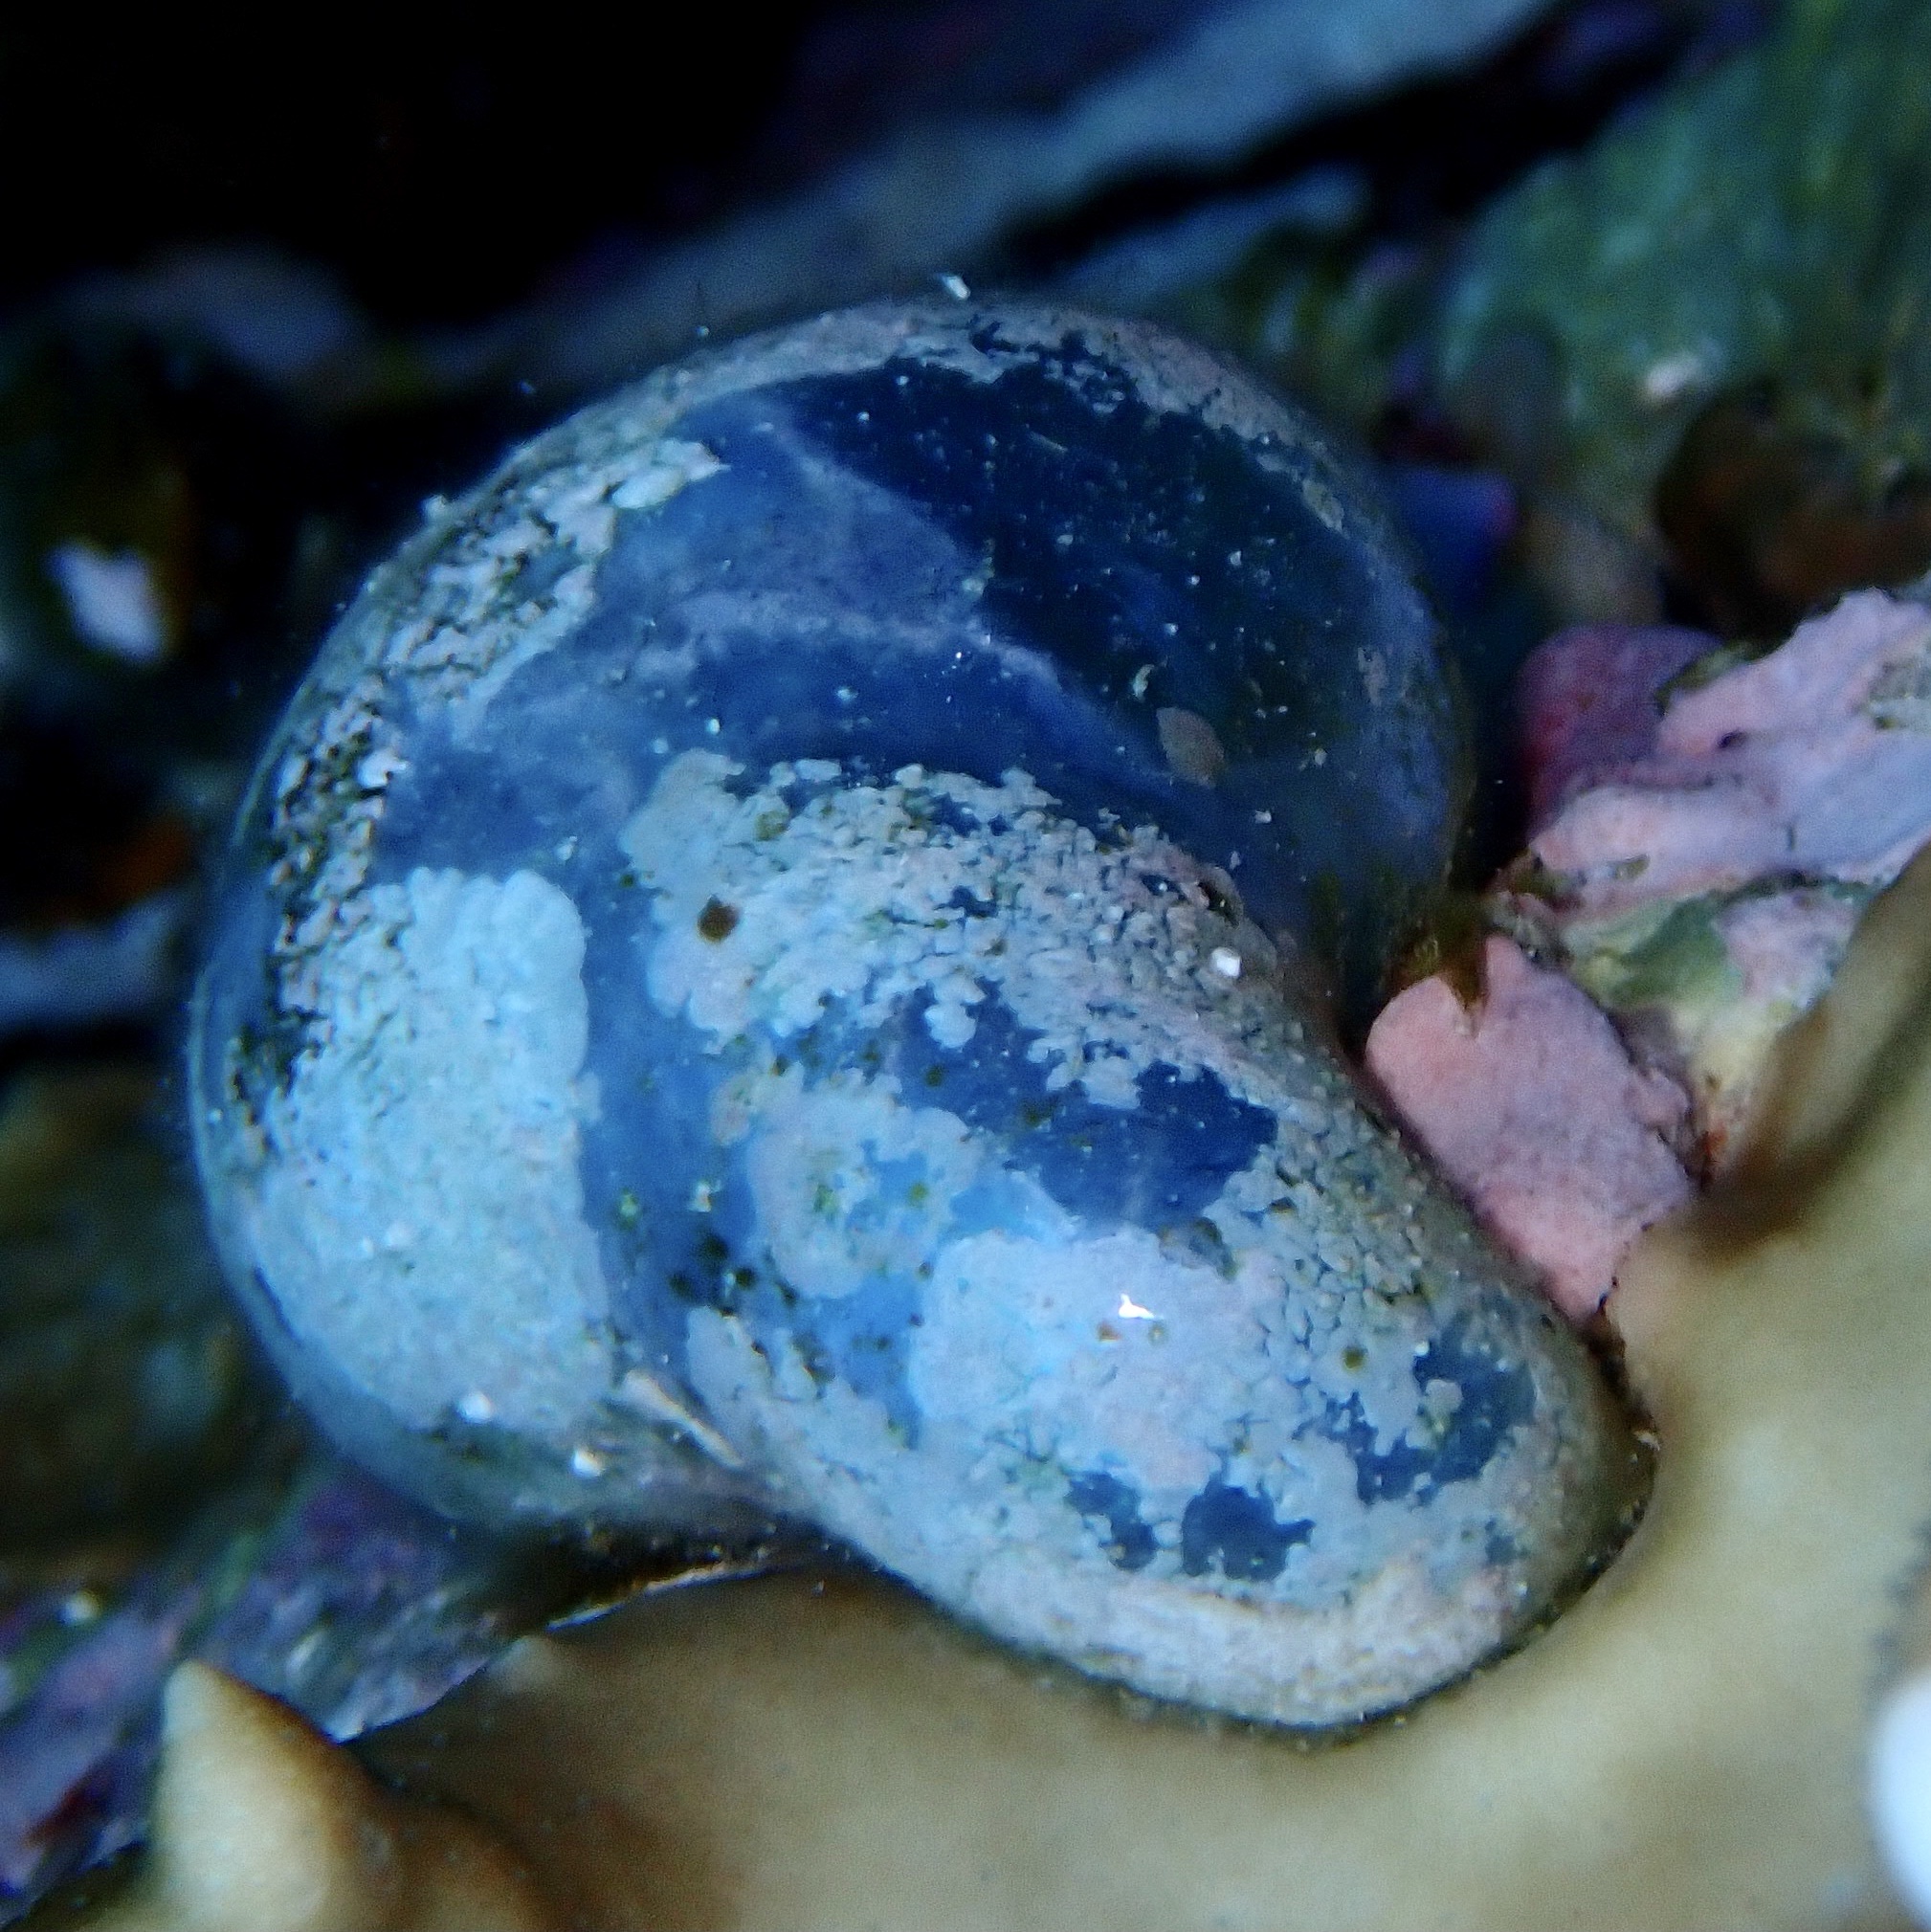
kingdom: Plantae
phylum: Chlorophyta
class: Ulvophyceae
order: Siphonocladales
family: Valoniaceae
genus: Valonia
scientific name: Valonia ventricosa
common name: Sea pearl
